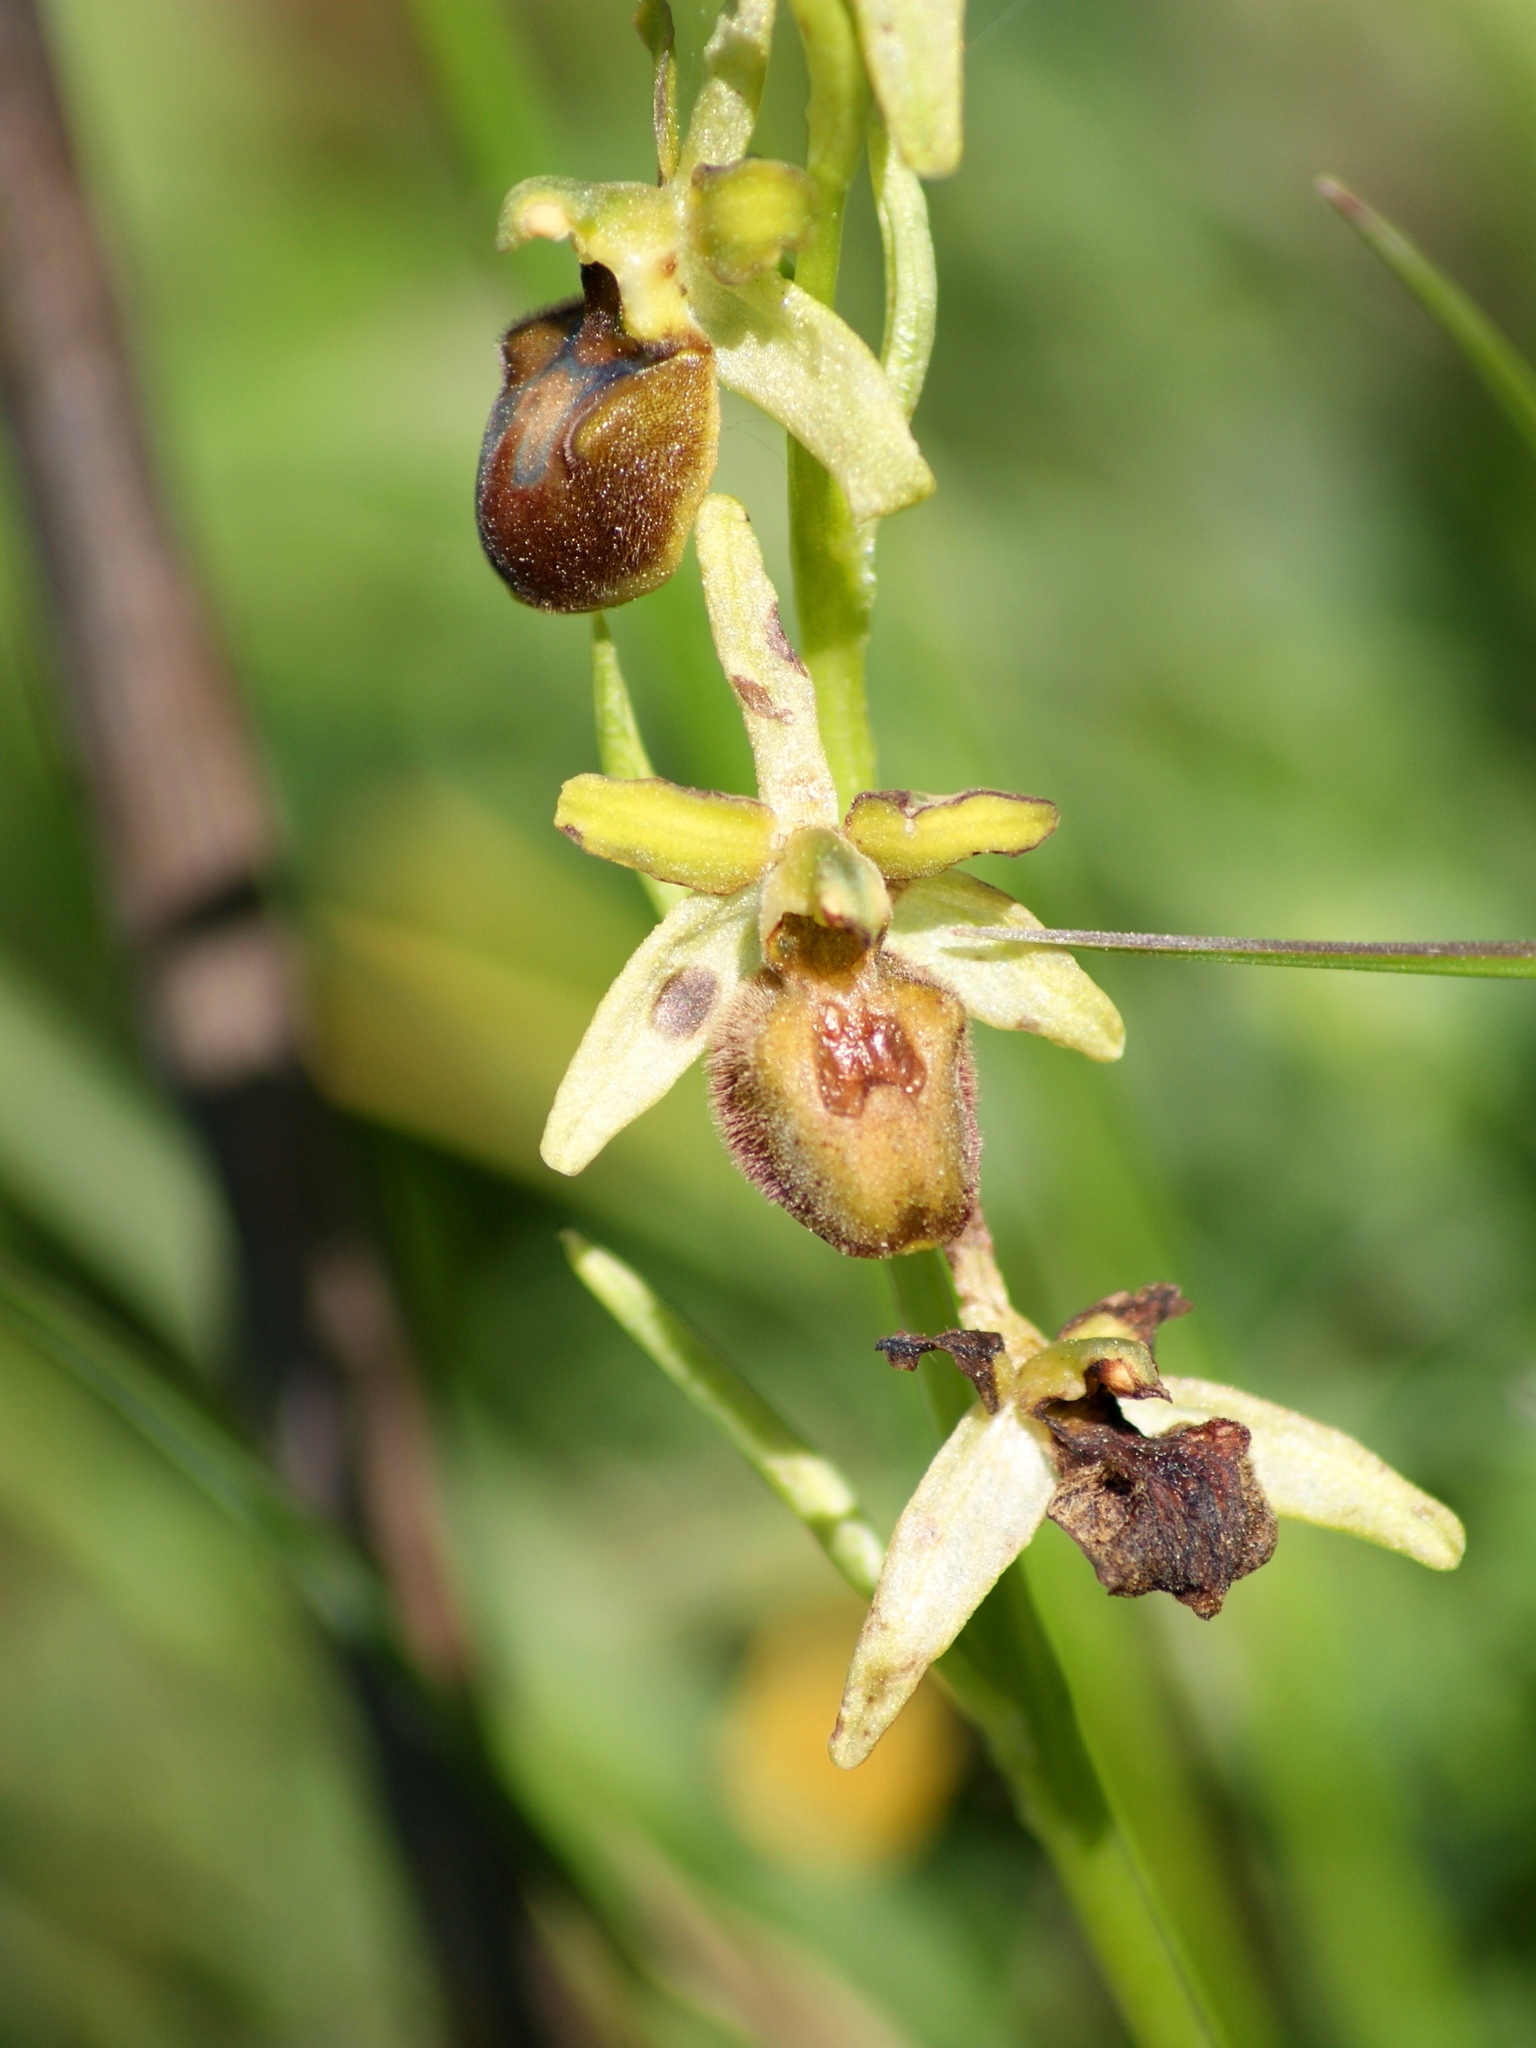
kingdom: Plantae
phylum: Tracheophyta
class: Liliopsida
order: Asparagales
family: Orchidaceae
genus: Ophrys
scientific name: Ophrys sphegodes
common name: Early spider-orchid
